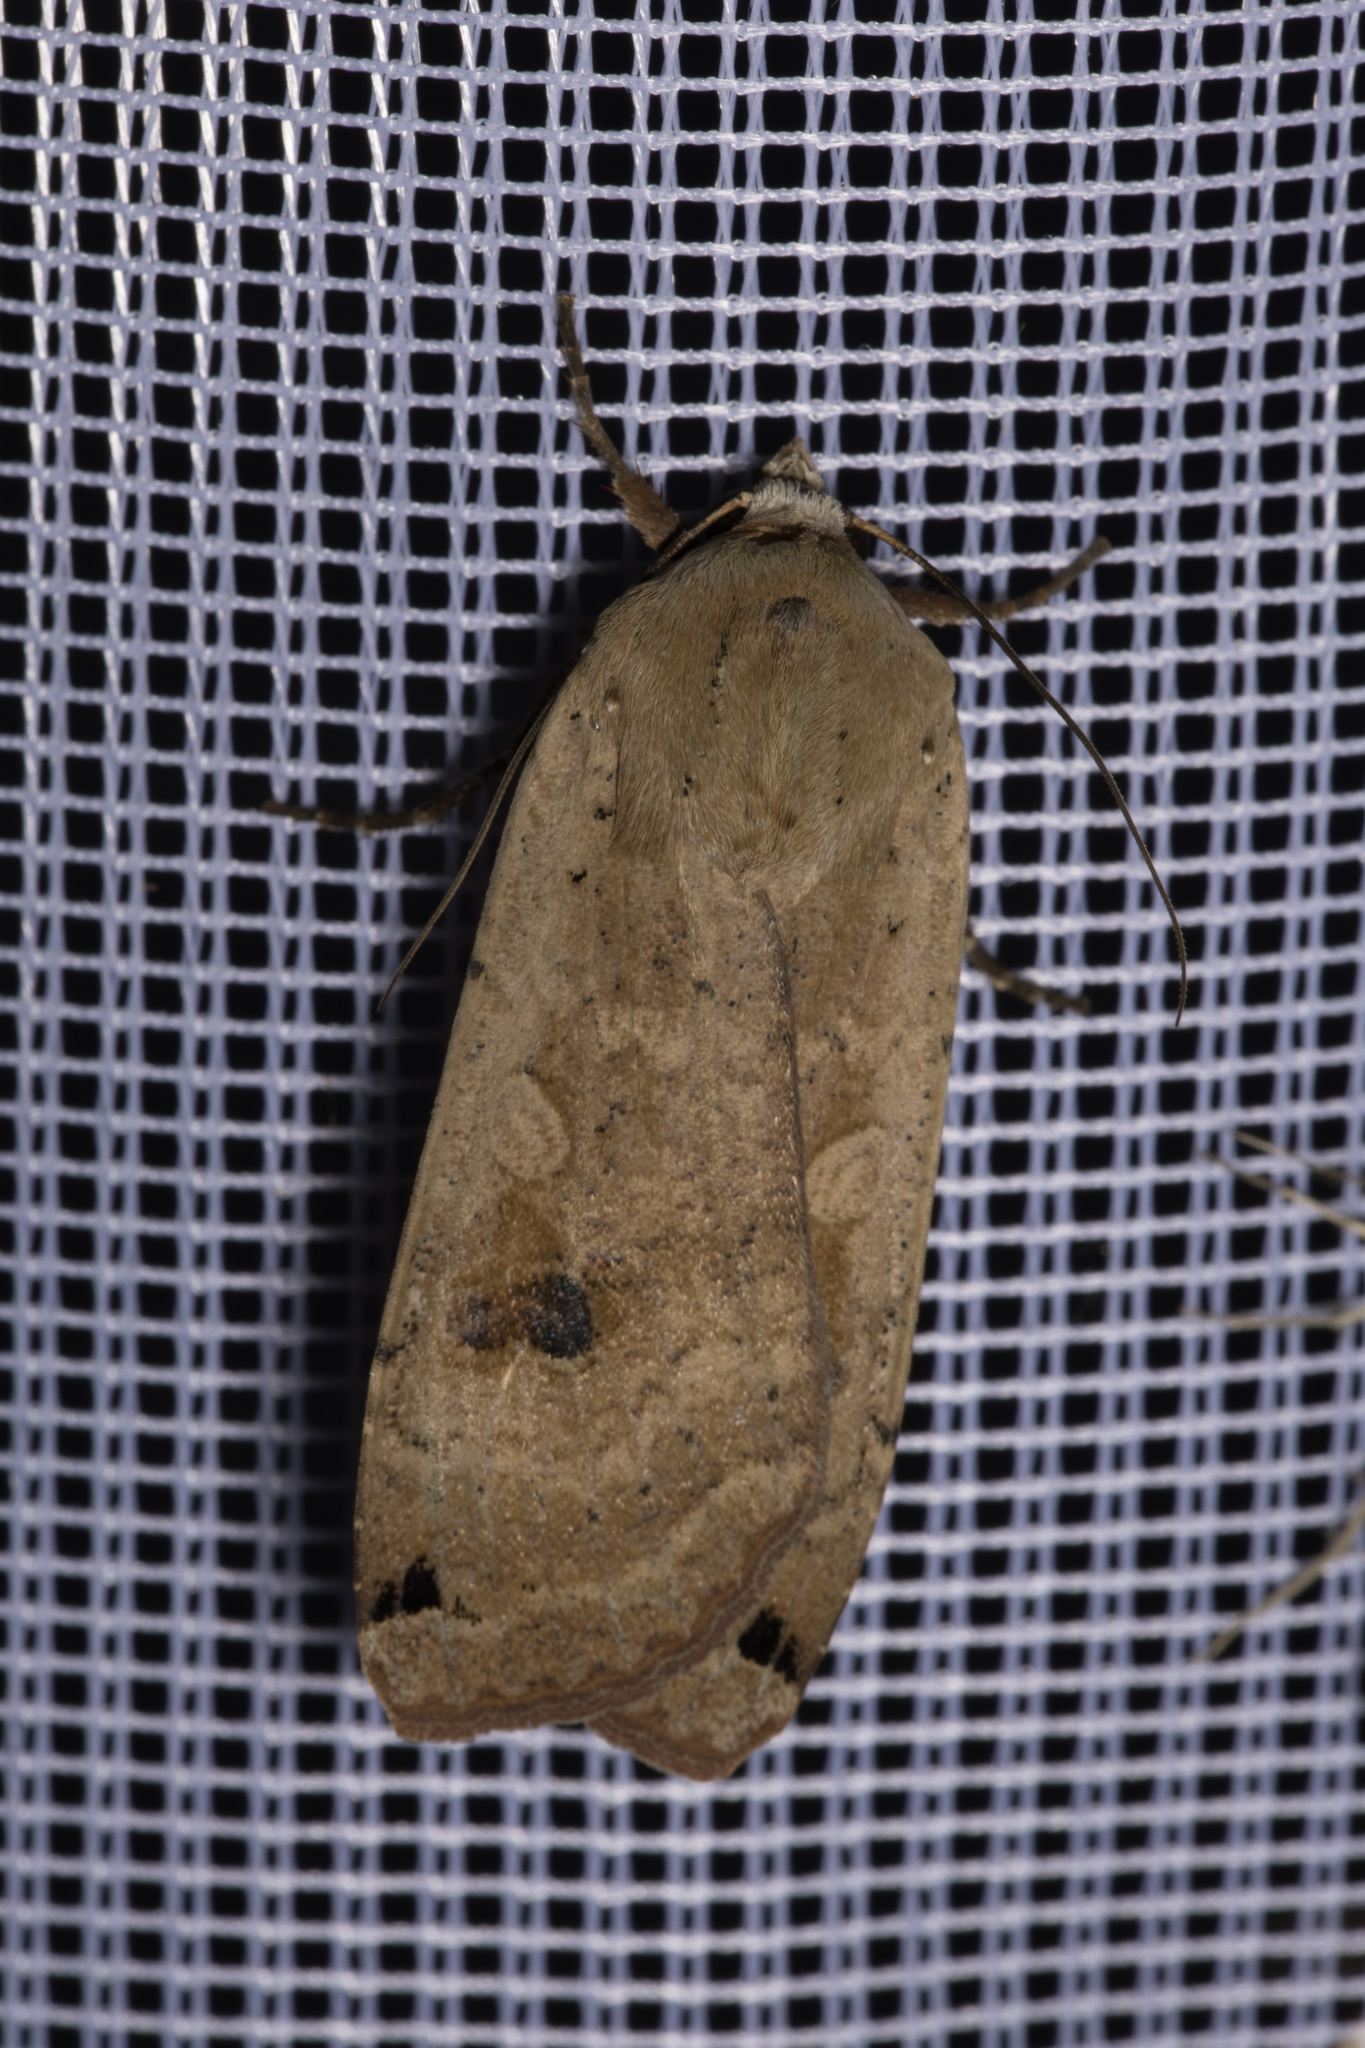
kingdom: Animalia
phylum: Arthropoda
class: Insecta
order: Lepidoptera
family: Noctuidae
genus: Noctua
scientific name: Noctua pronuba
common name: Large yellow underwing
